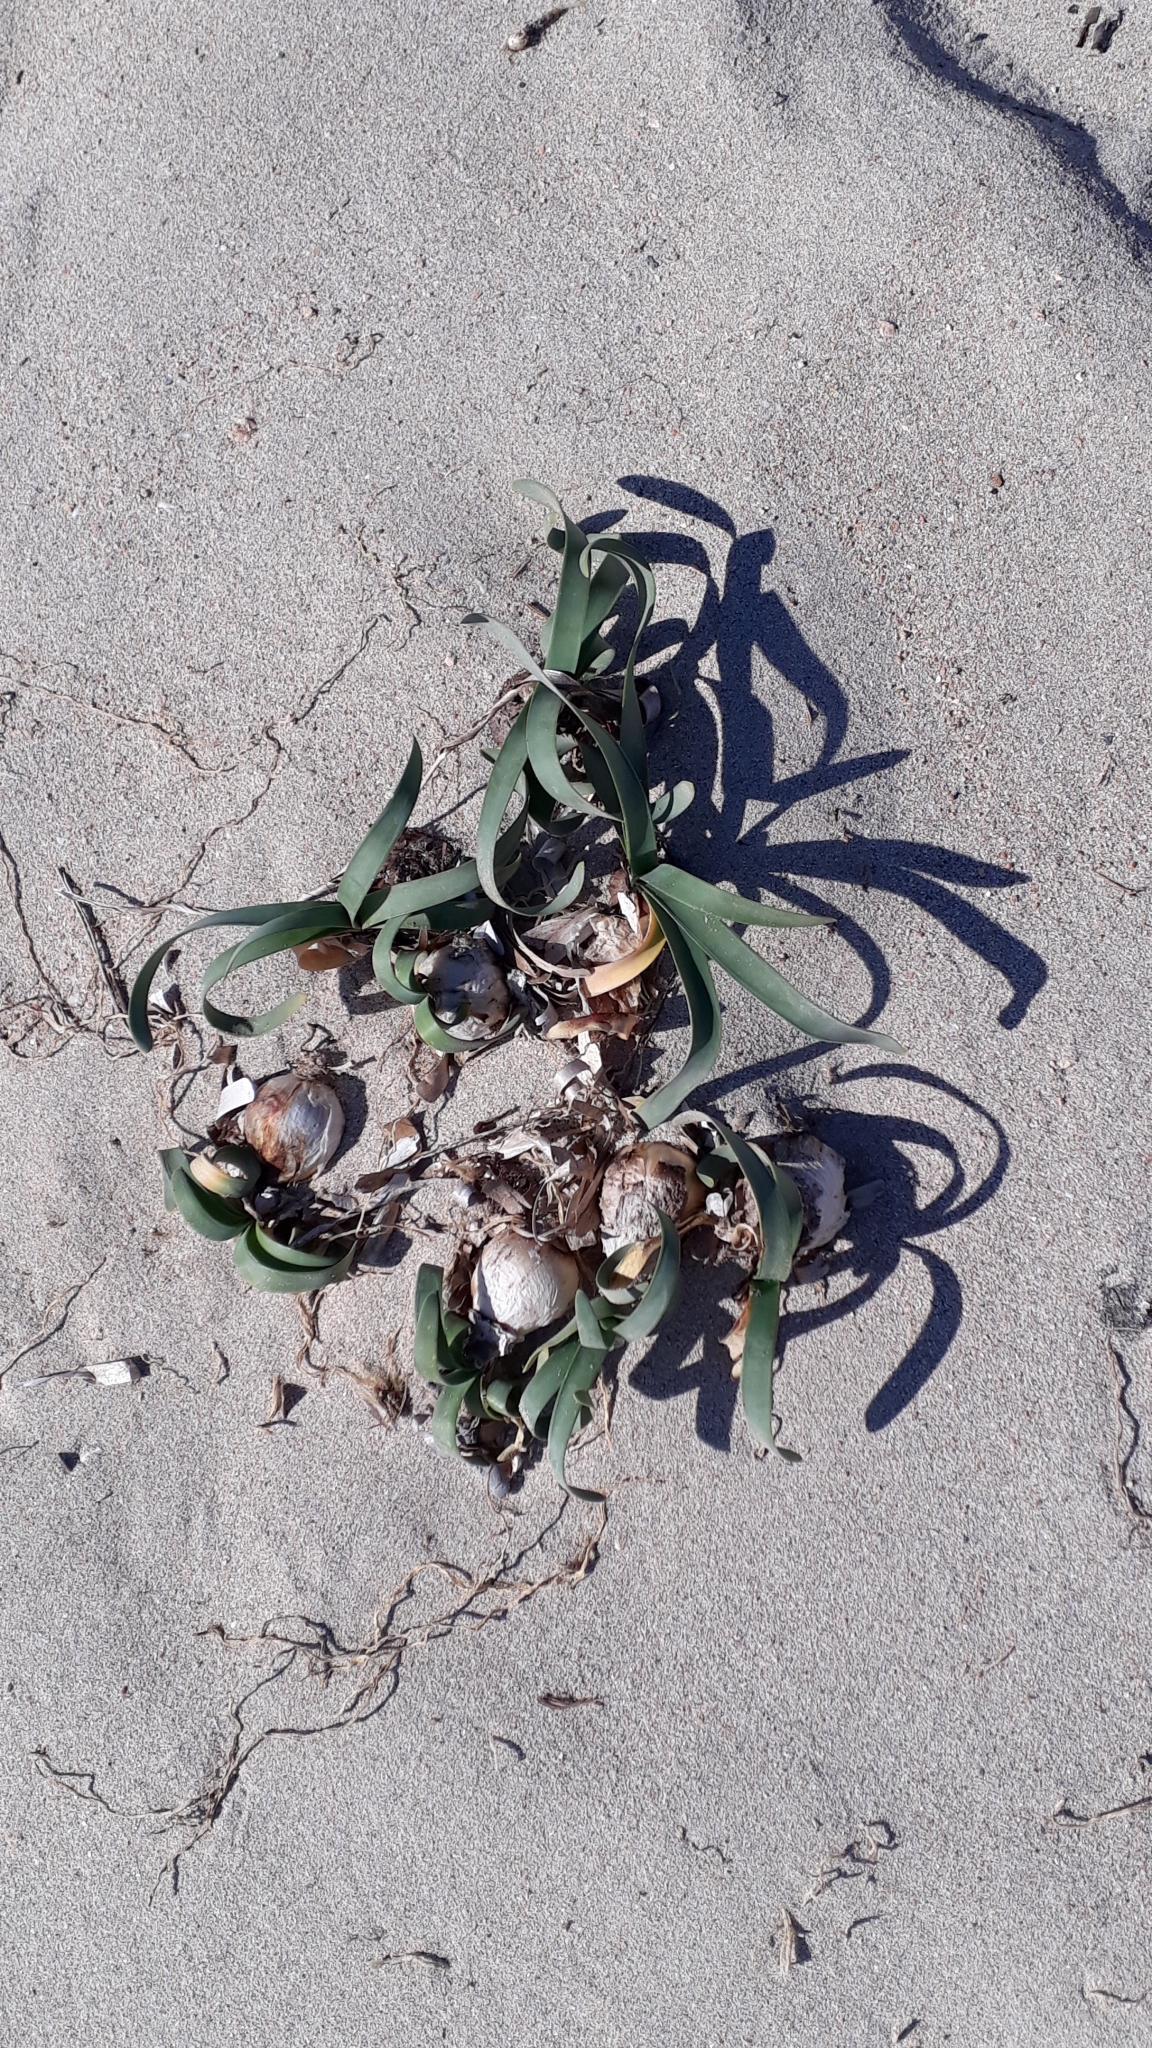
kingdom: Plantae
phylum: Tracheophyta
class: Liliopsida
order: Asparagales
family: Amaryllidaceae
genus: Pancratium
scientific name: Pancratium maritimum
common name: Sea-daffodil
